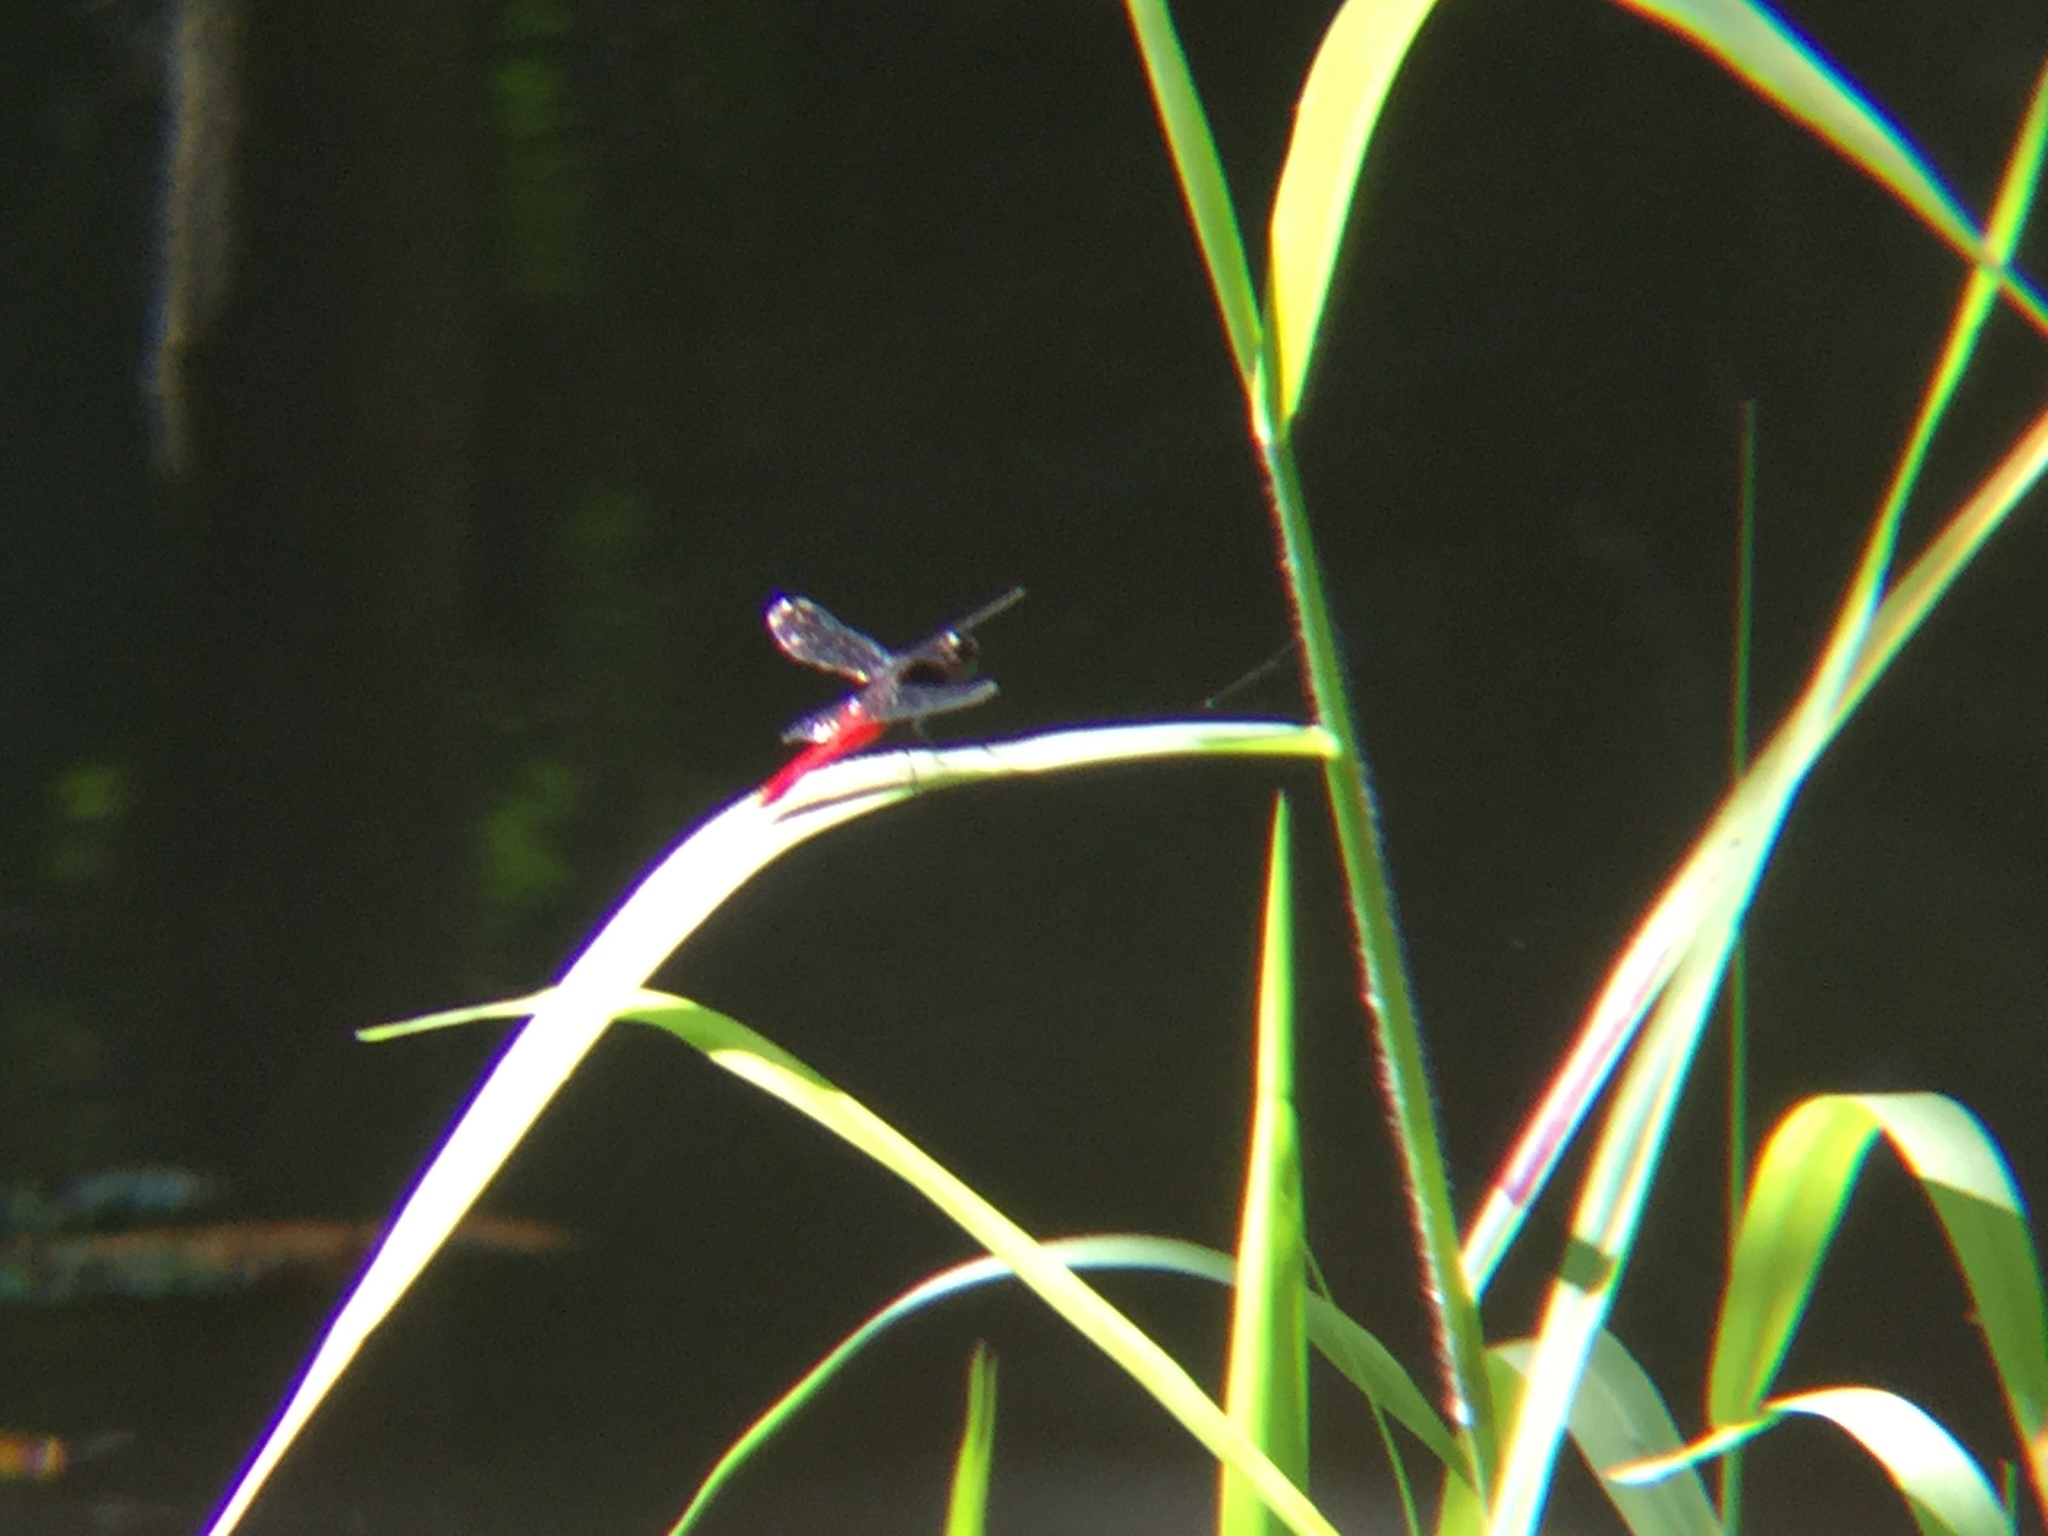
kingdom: Animalia
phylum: Arthropoda
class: Insecta
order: Odonata
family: Libellulidae
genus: Erythemis
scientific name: Erythemis peruviana
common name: Flame-tailed pondhawk
